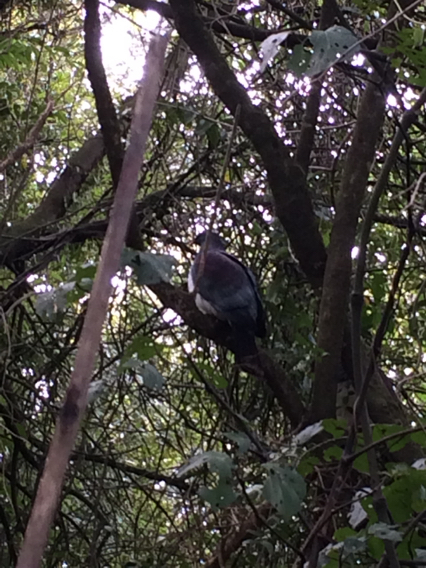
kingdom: Animalia
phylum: Chordata
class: Aves
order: Columbiformes
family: Columbidae
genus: Hemiphaga
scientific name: Hemiphaga novaeseelandiae
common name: New zealand pigeon
